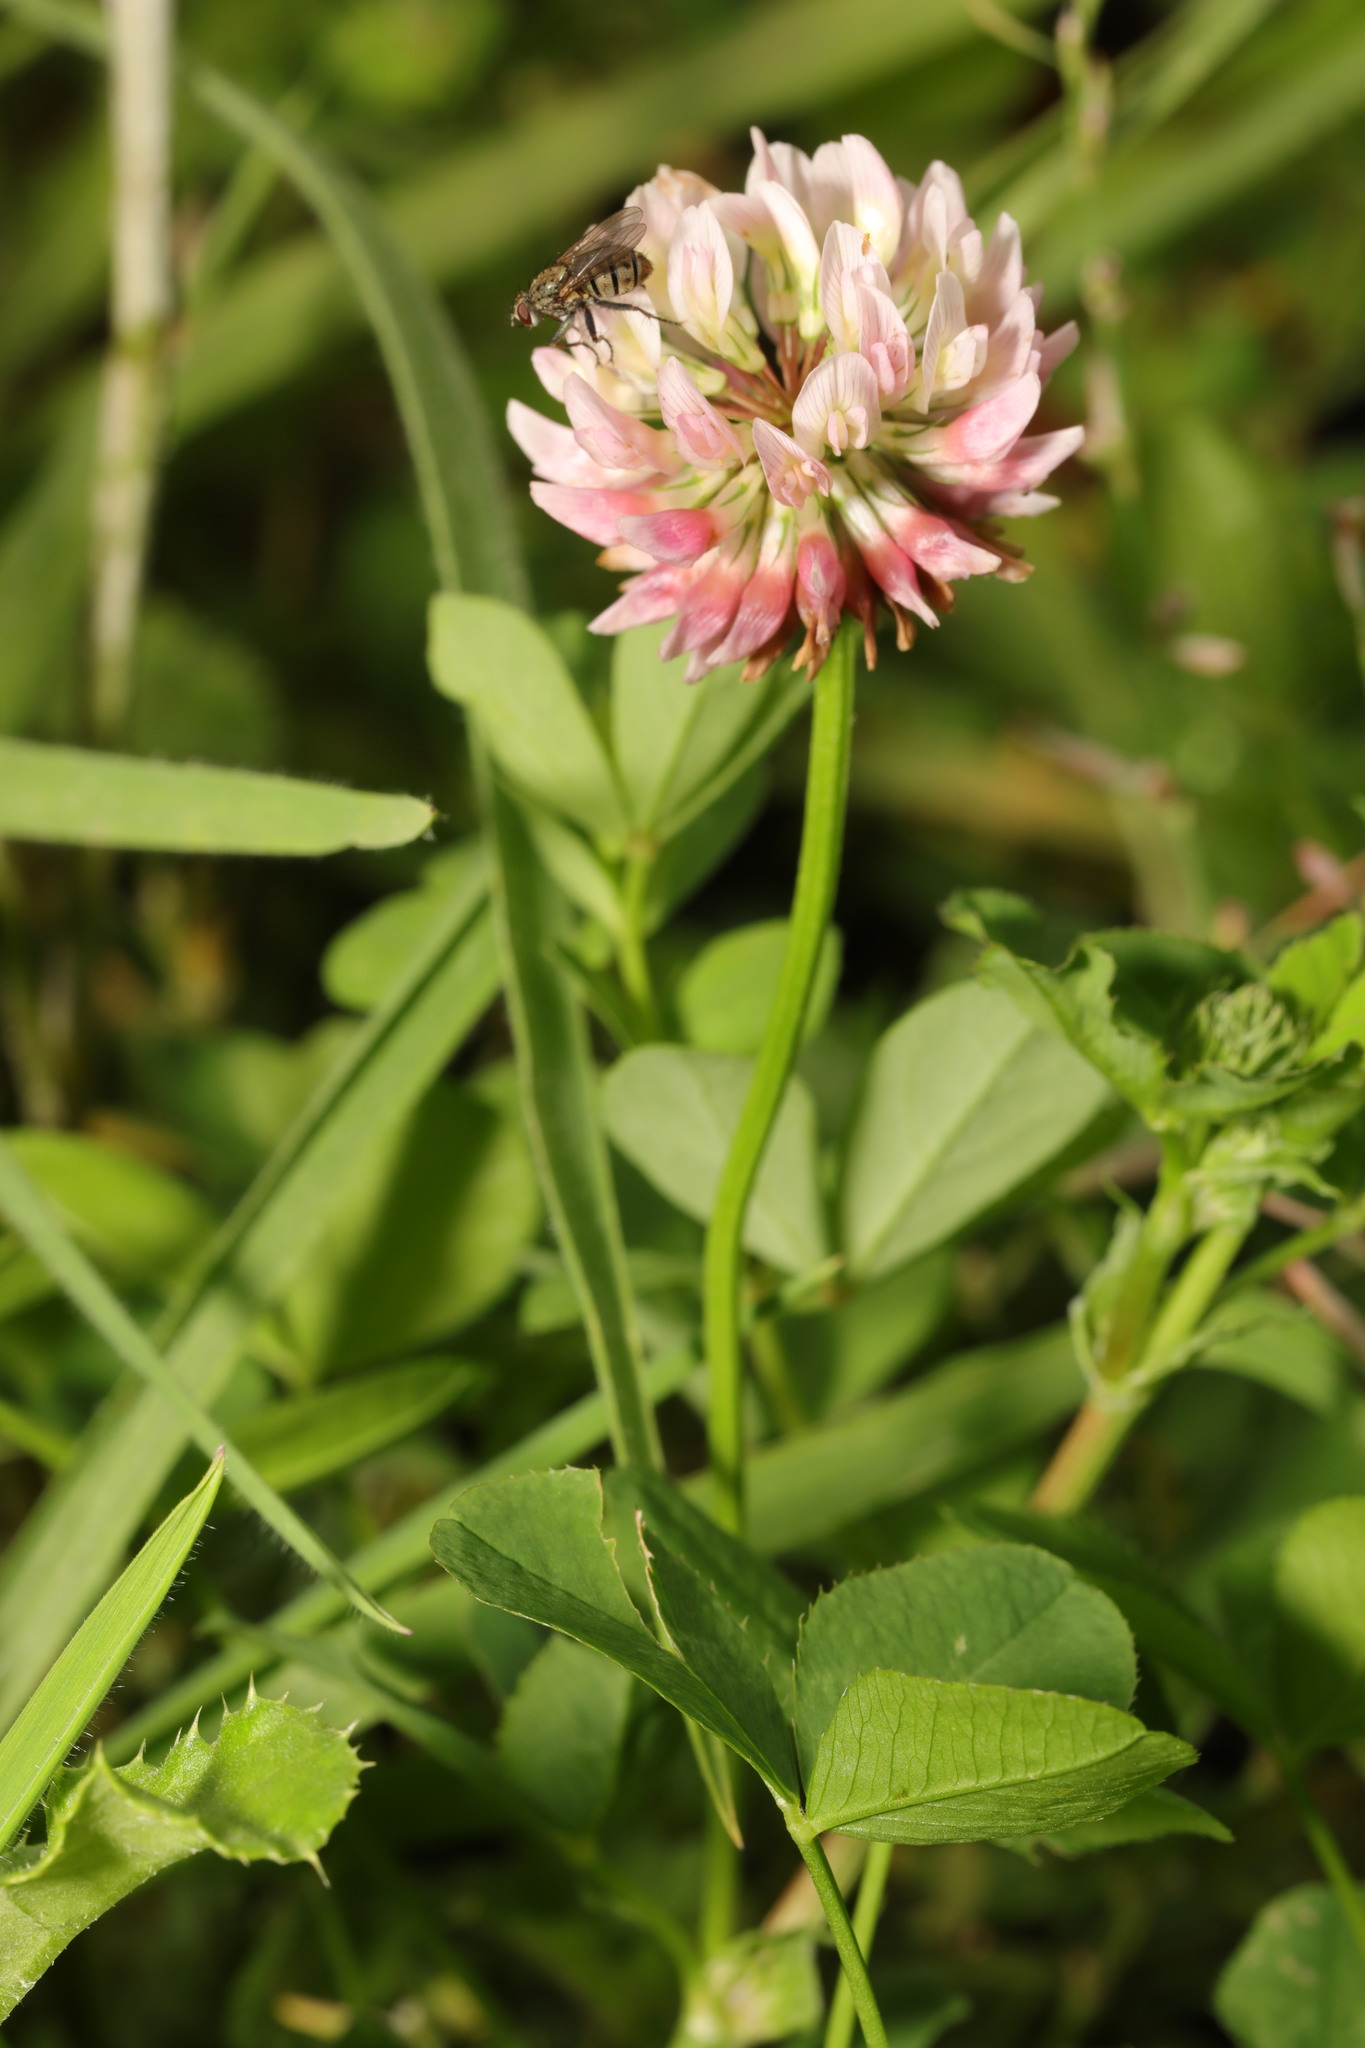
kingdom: Plantae
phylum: Tracheophyta
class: Magnoliopsida
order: Fabales
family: Fabaceae
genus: Trifolium
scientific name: Trifolium hybridum
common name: Alsike clover
